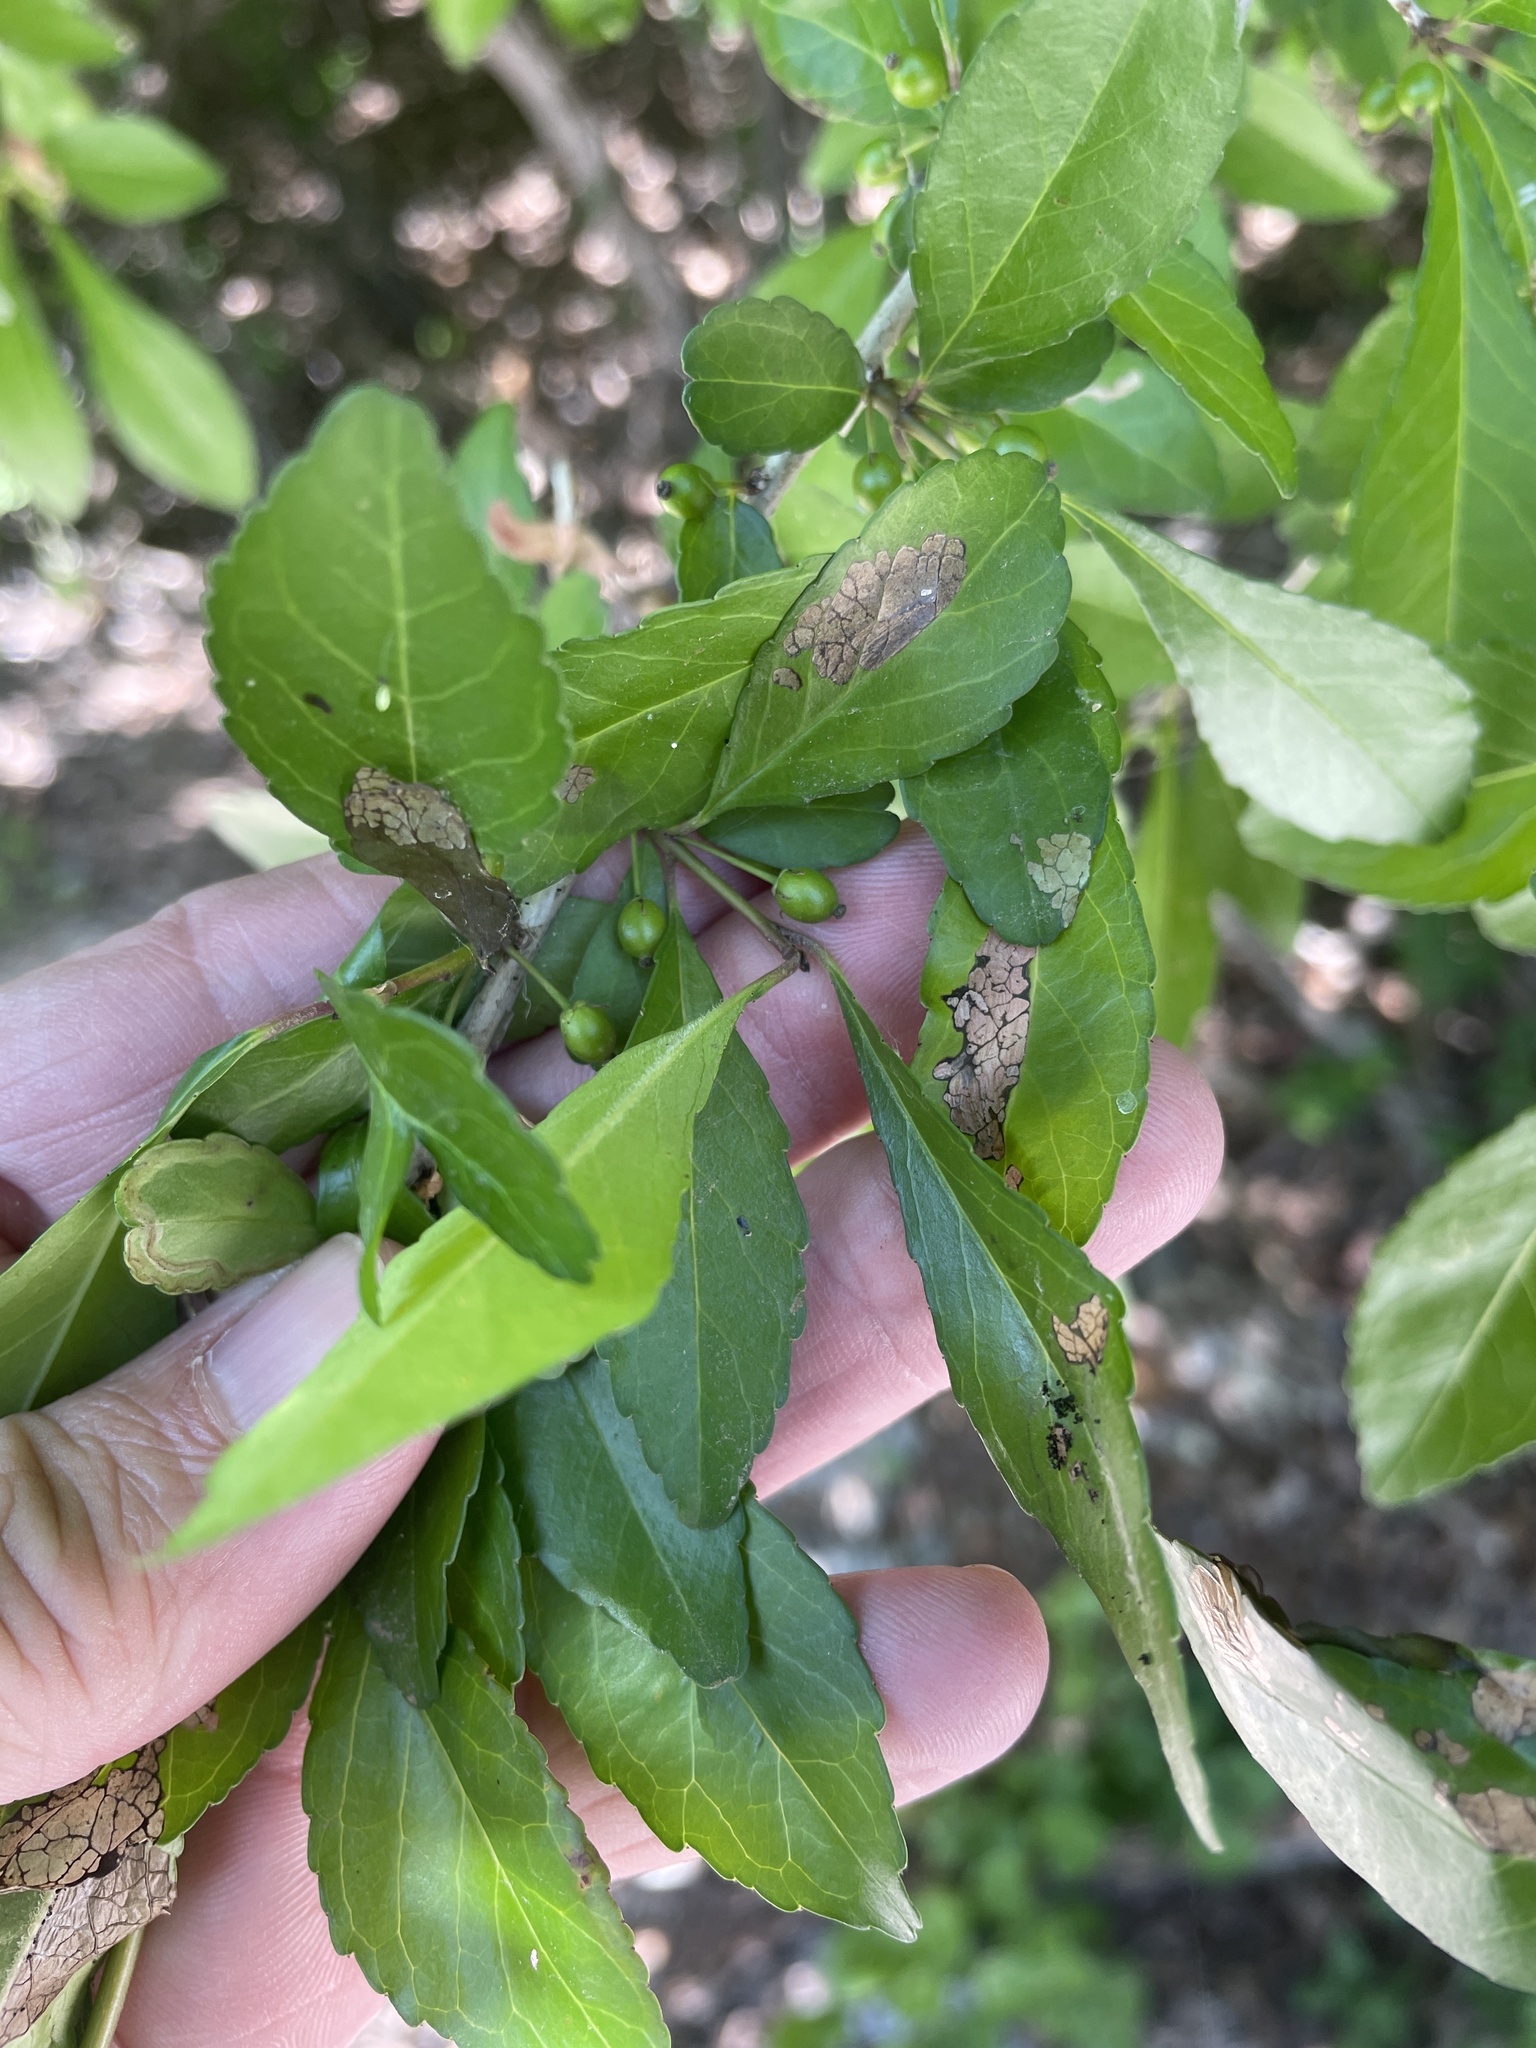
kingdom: Plantae
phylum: Tracheophyta
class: Magnoliopsida
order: Aquifoliales
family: Aquifoliaceae
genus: Ilex
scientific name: Ilex decidua
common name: Possum-haw
